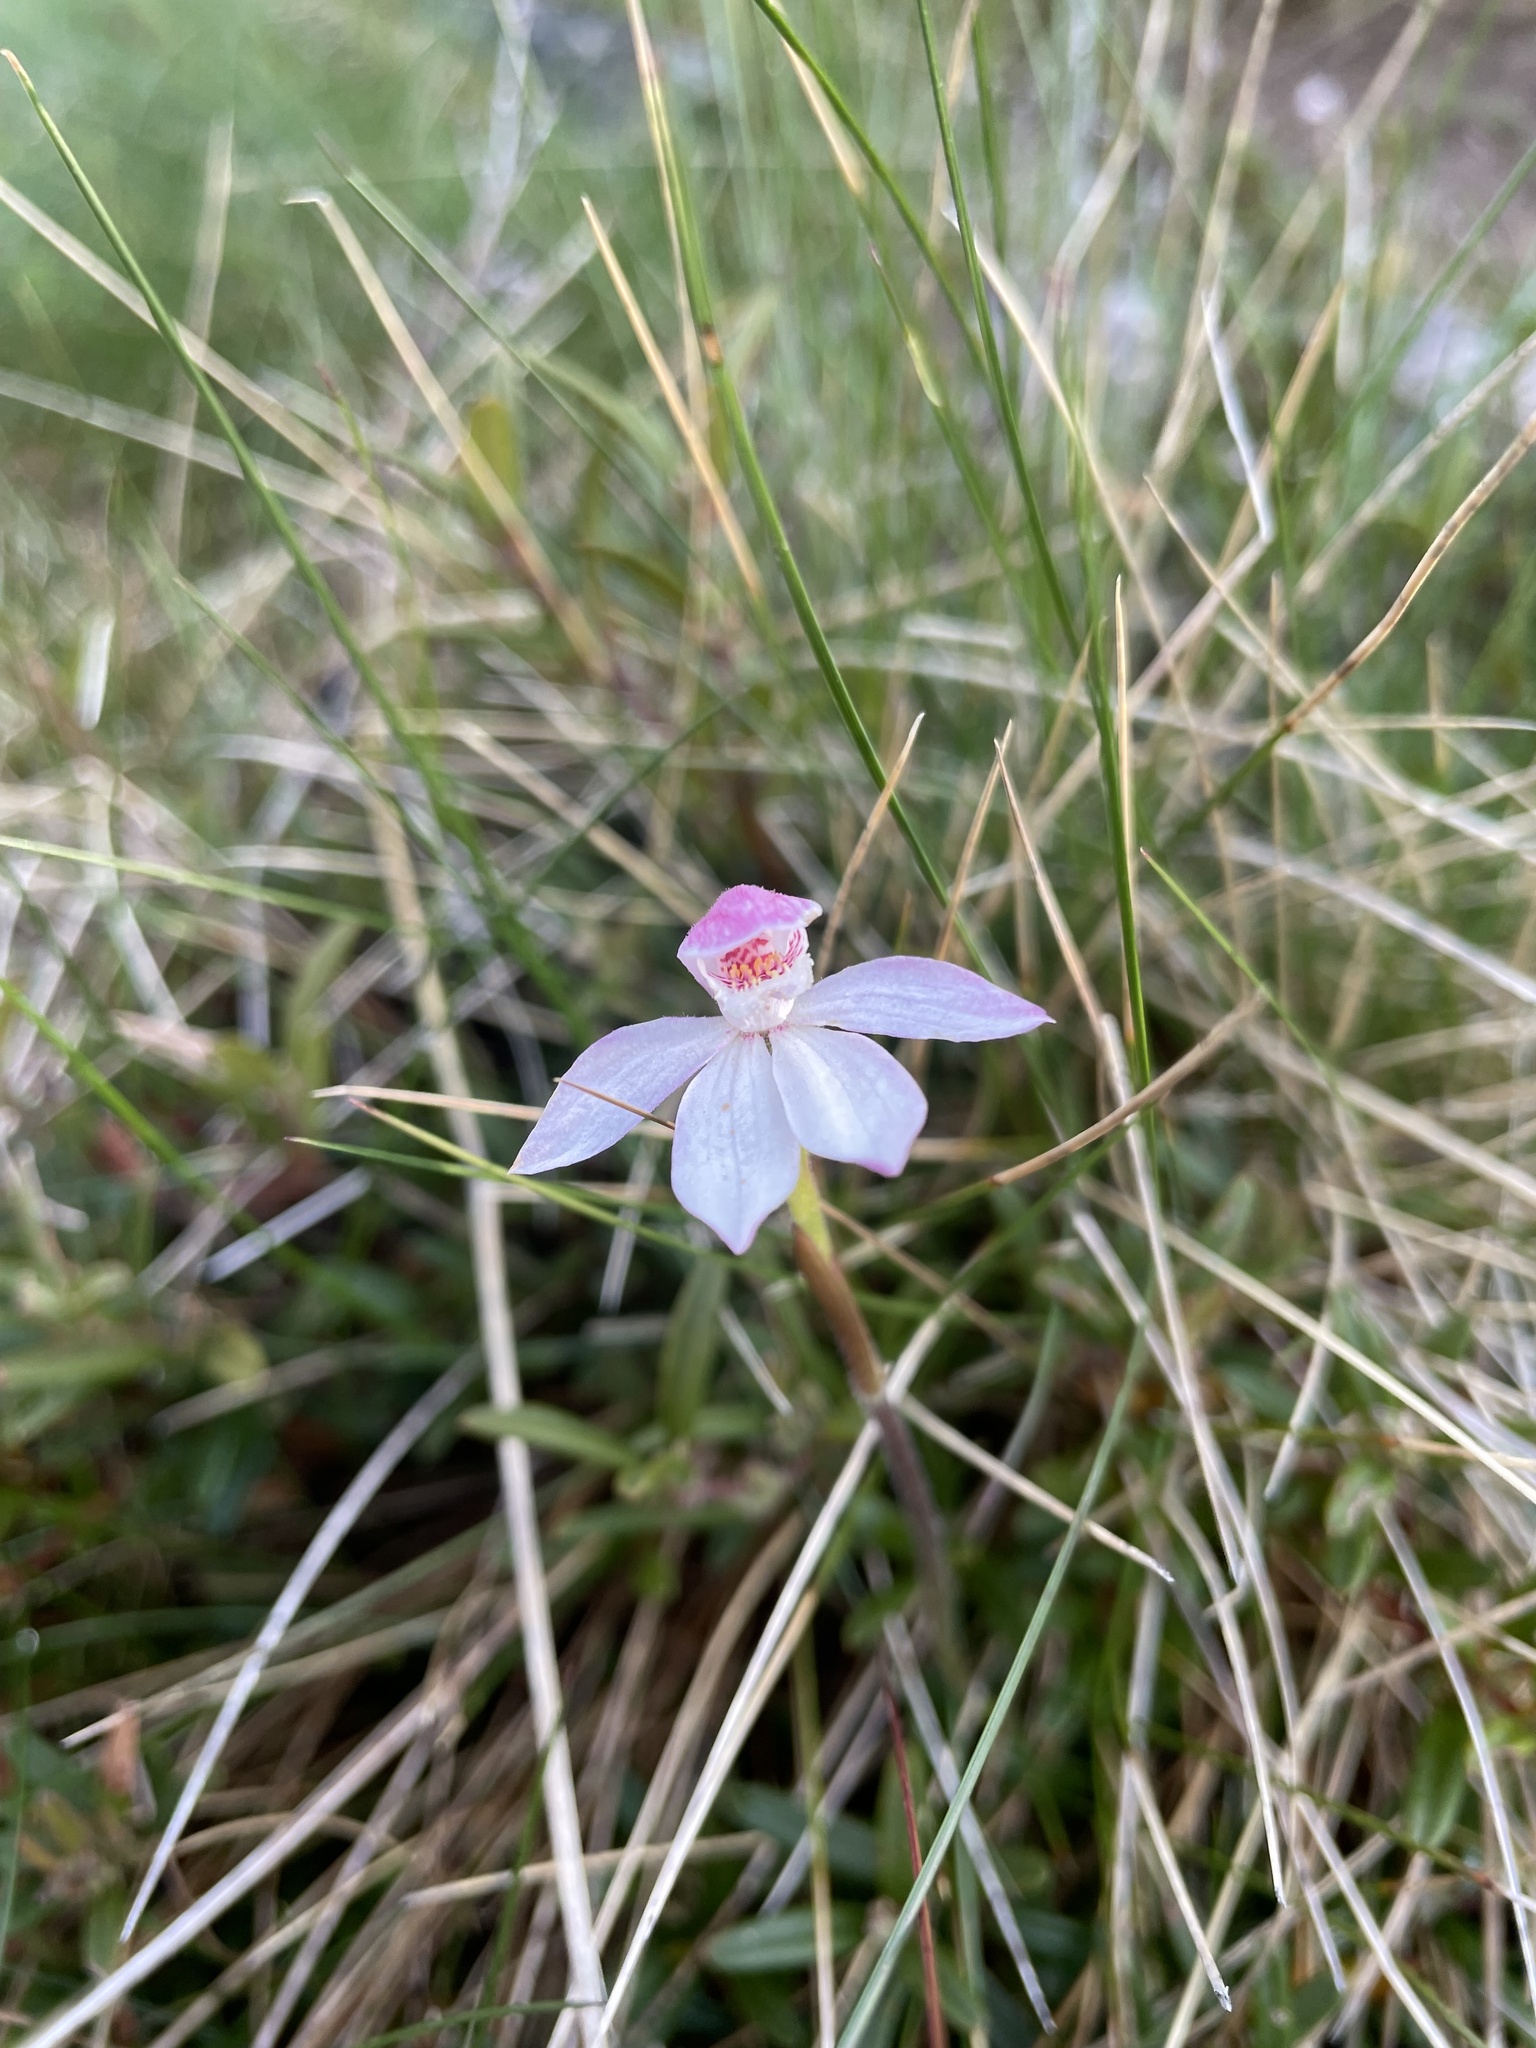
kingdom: Plantae
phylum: Tracheophyta
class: Liliopsida
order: Asparagales
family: Orchidaceae
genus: Caladenia
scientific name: Caladenia alpina
